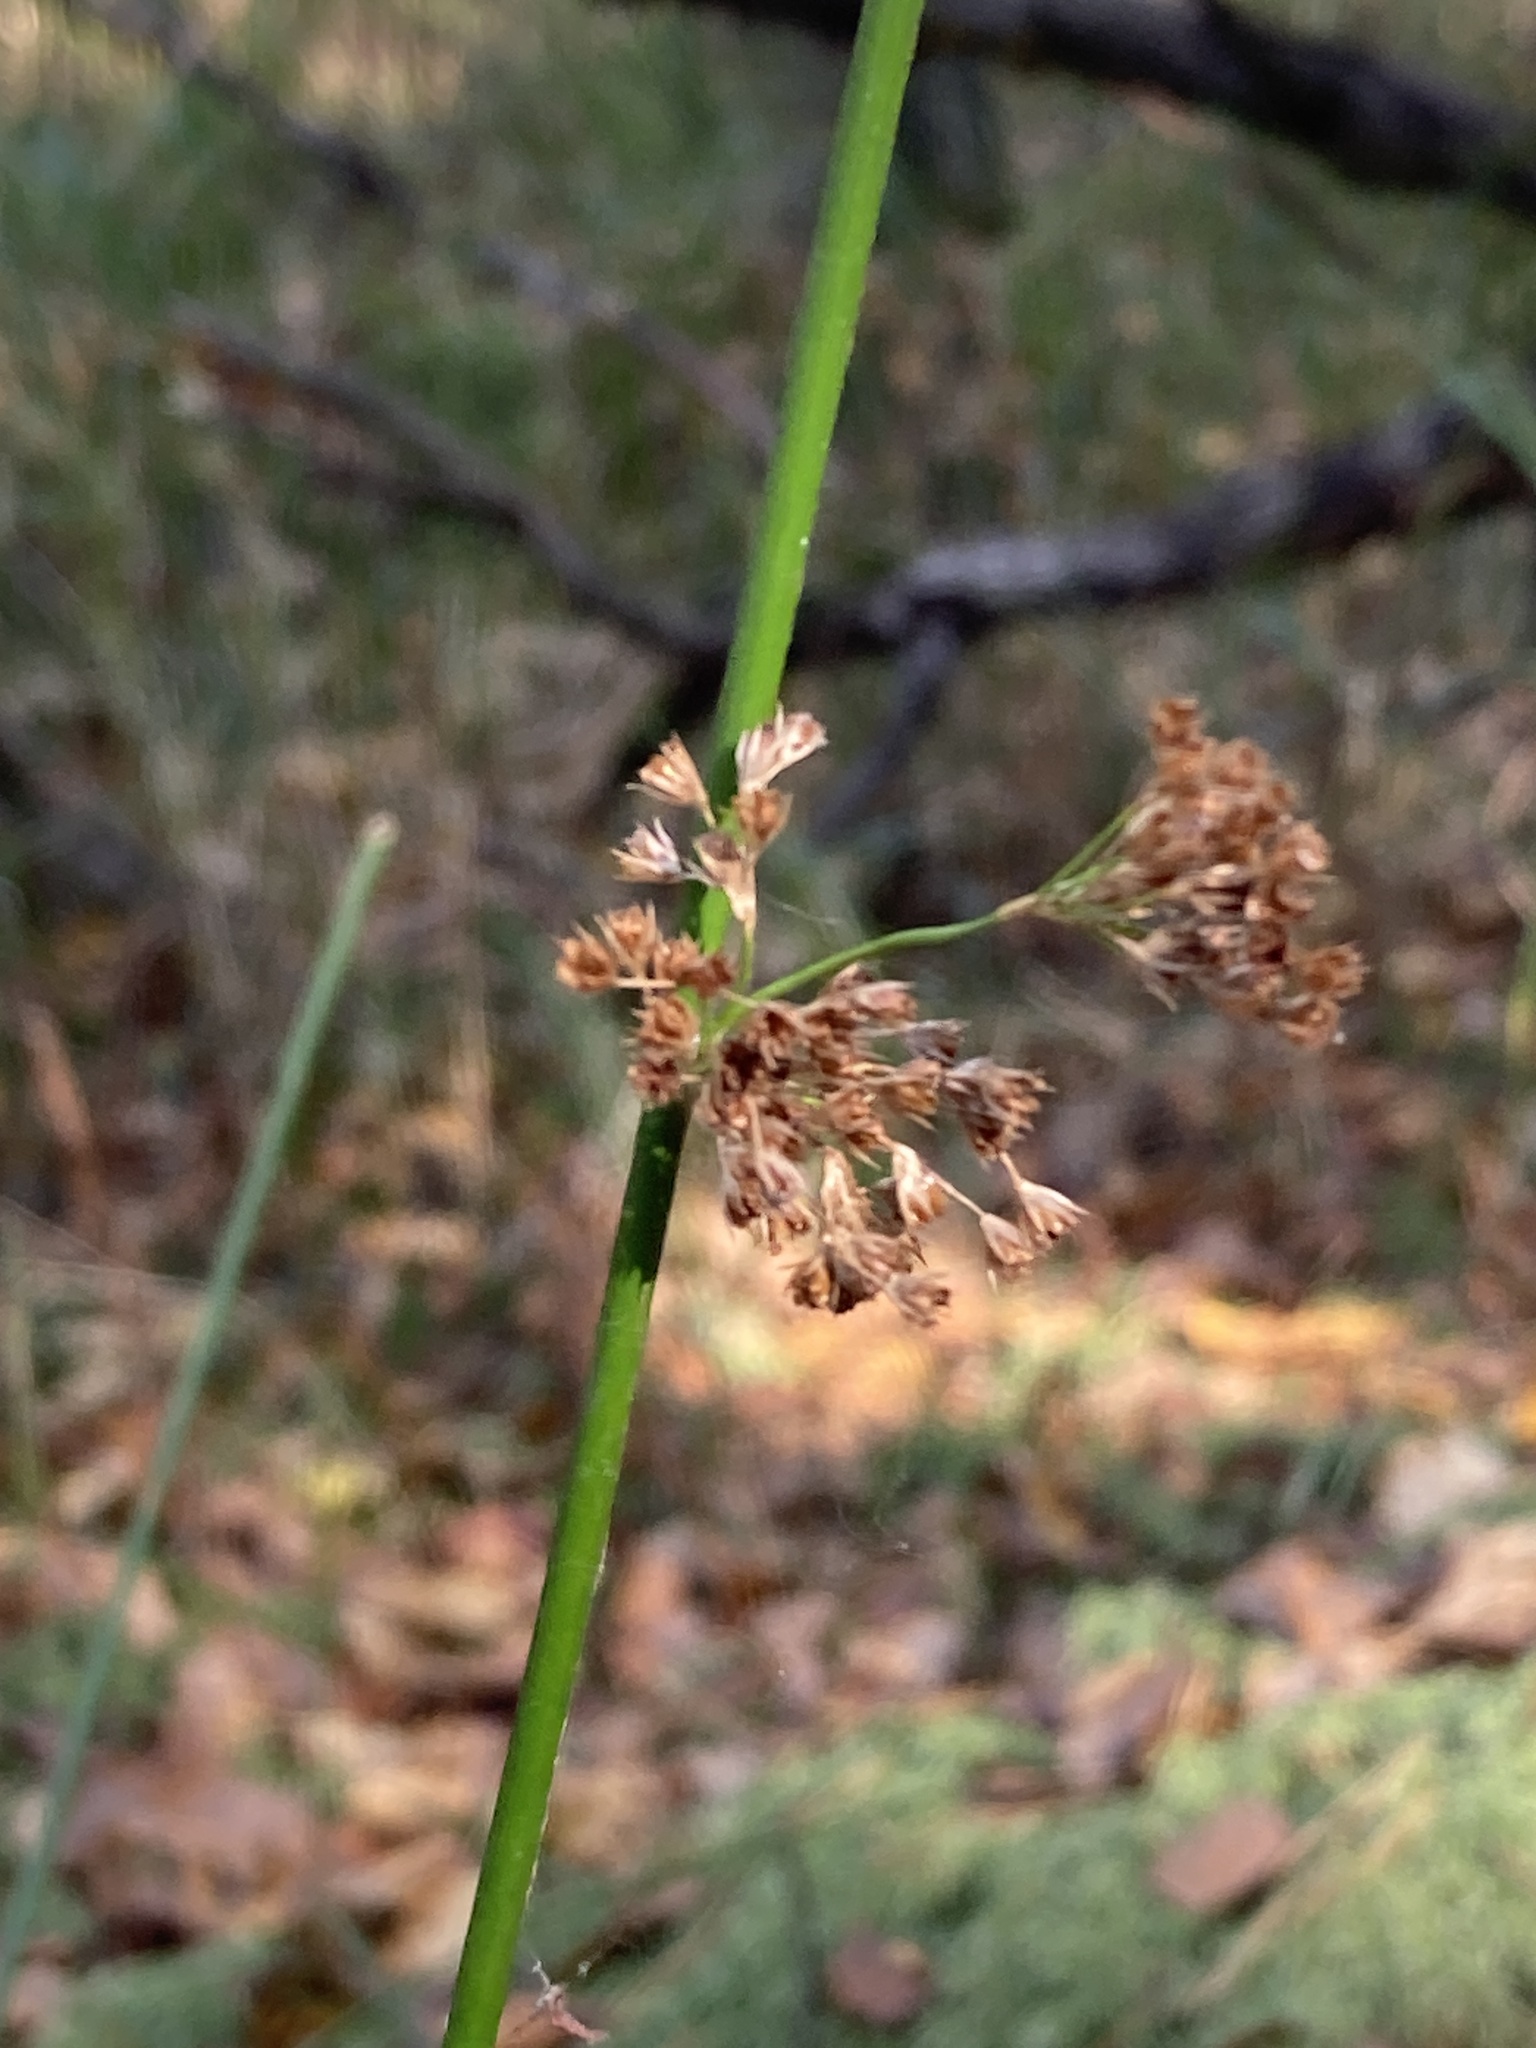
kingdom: Plantae
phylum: Tracheophyta
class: Liliopsida
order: Poales
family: Juncaceae
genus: Juncus
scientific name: Juncus effusus
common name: Soft rush
